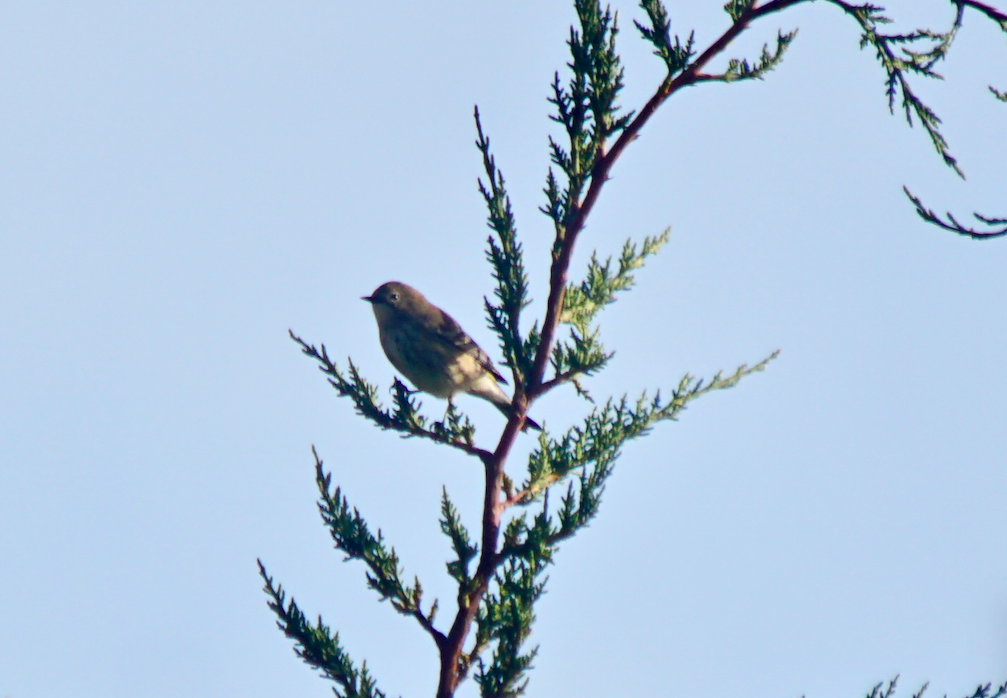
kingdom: Animalia
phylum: Chordata
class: Aves
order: Passeriformes
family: Parulidae
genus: Setophaga
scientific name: Setophaga auduboni
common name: Audubon's warbler
